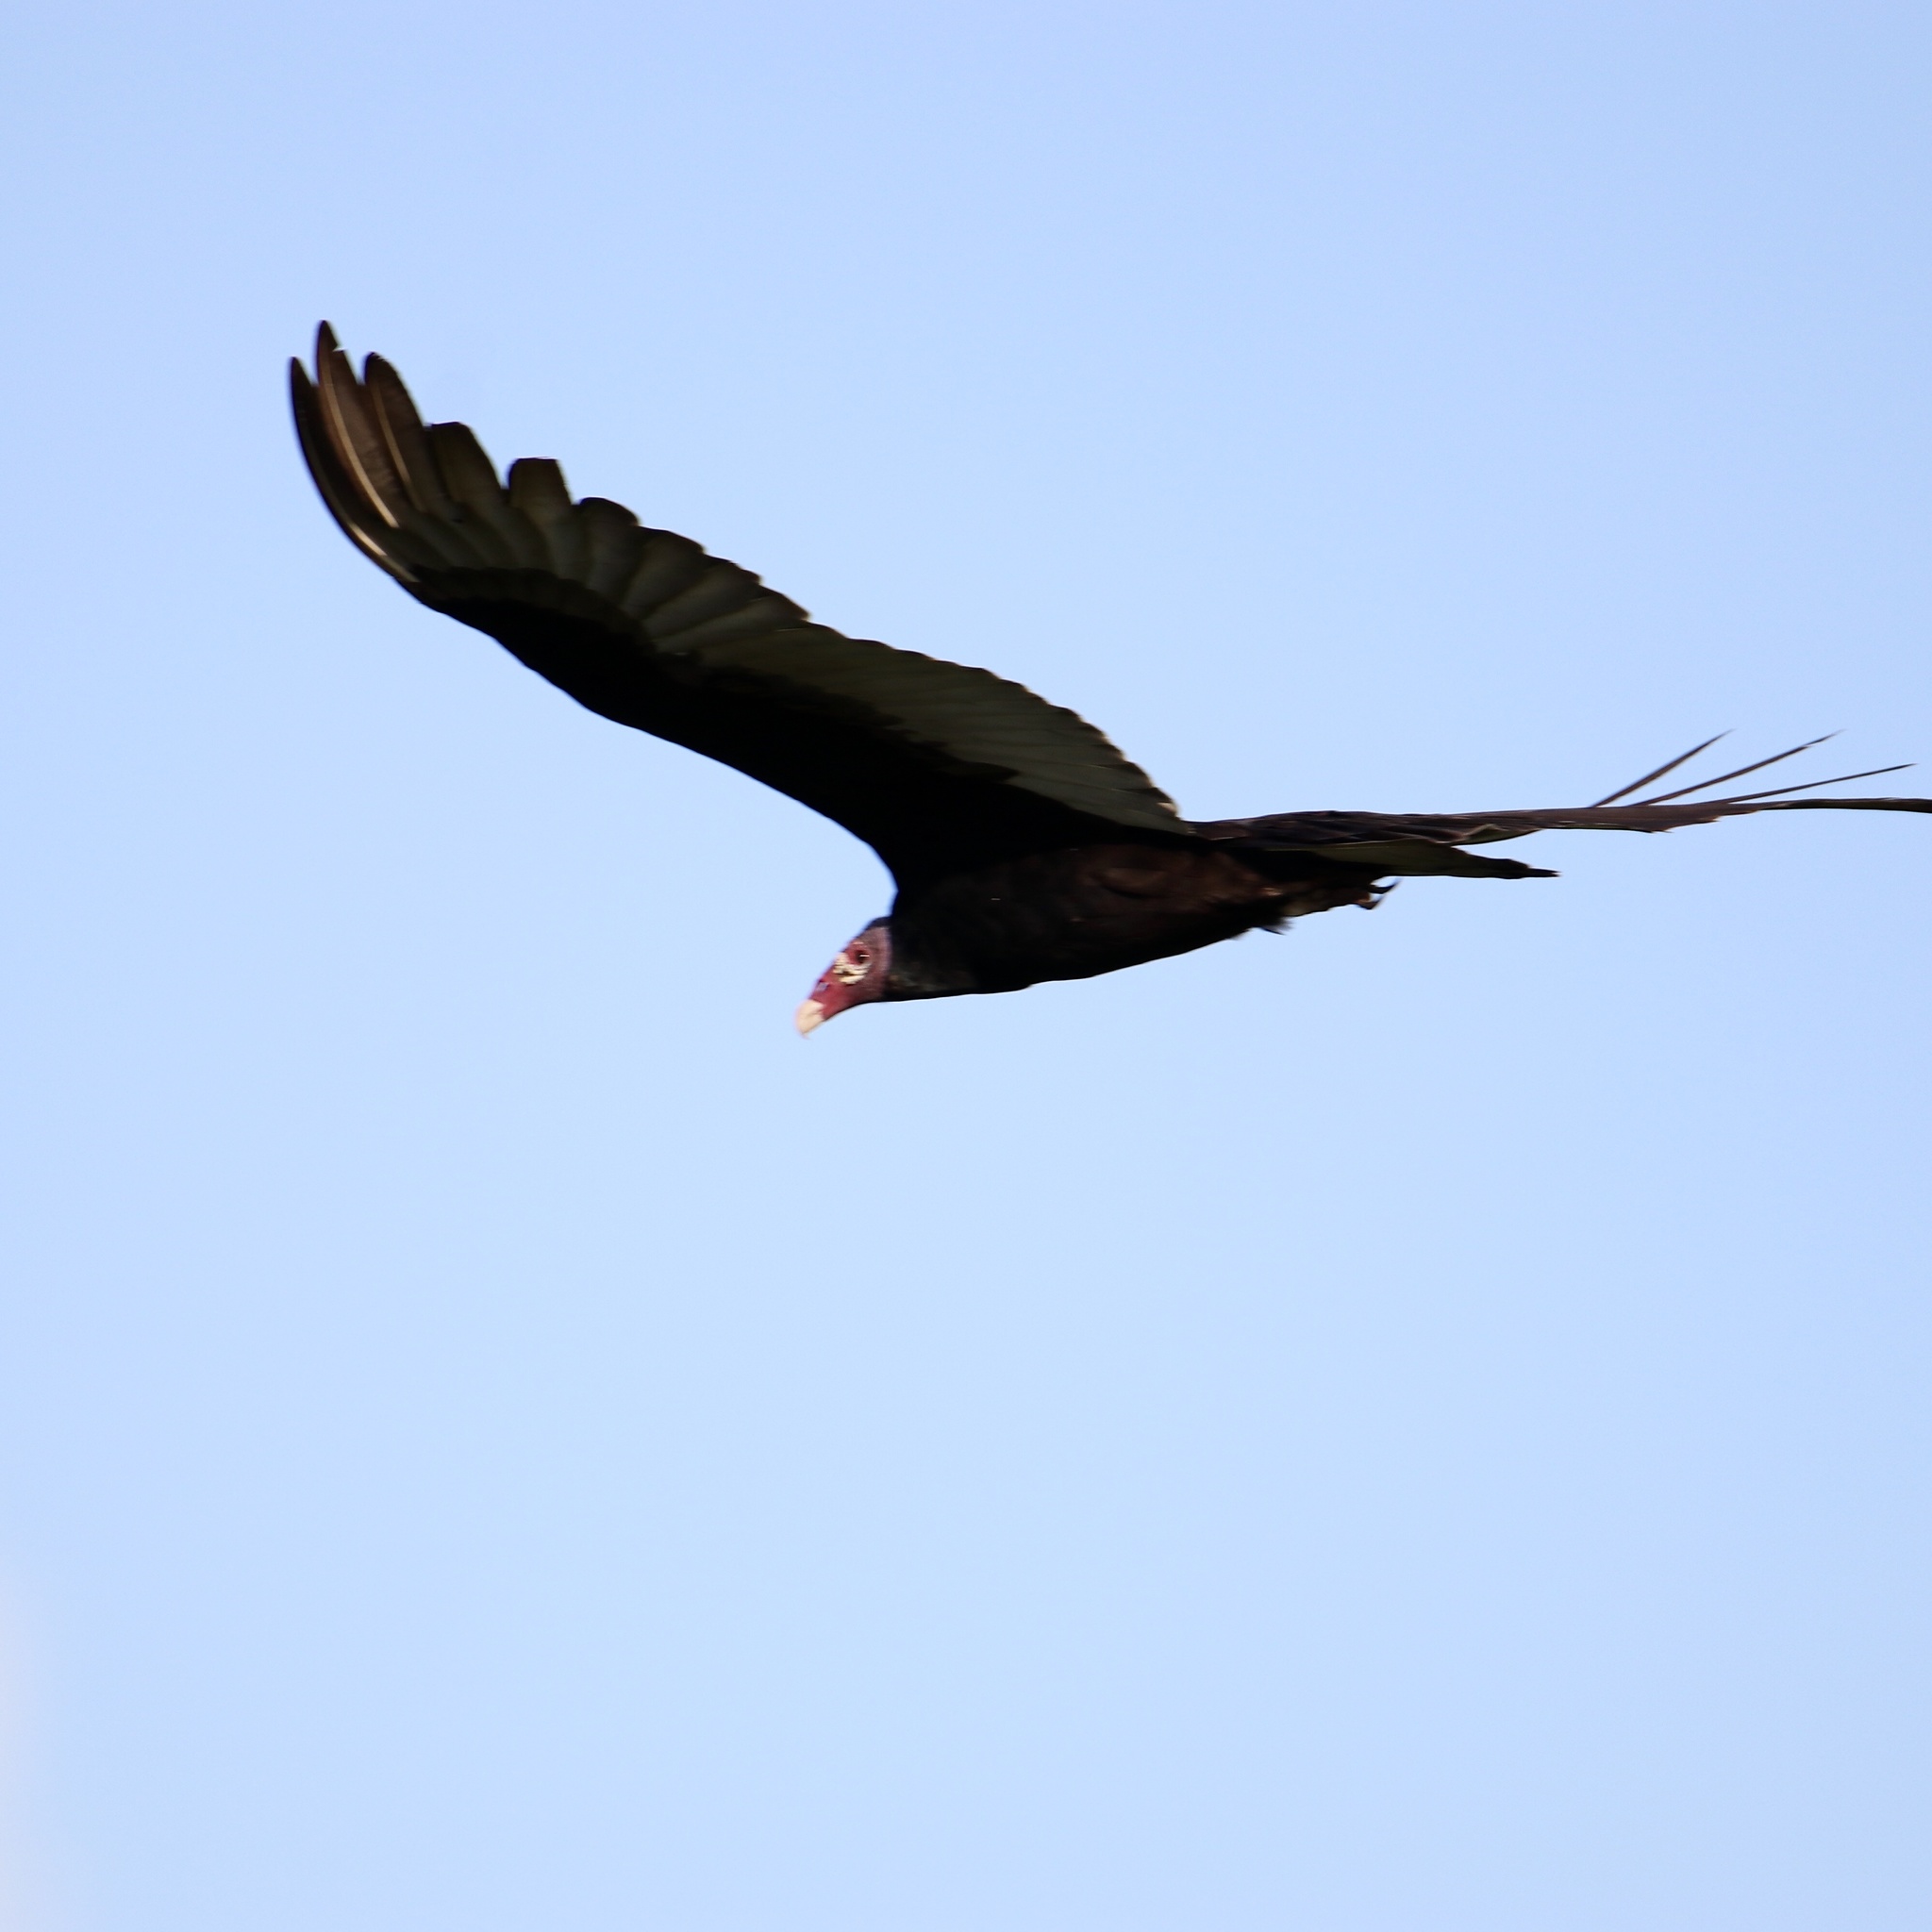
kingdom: Animalia
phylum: Chordata
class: Aves
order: Accipitriformes
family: Cathartidae
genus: Cathartes
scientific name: Cathartes aura
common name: Turkey vulture
